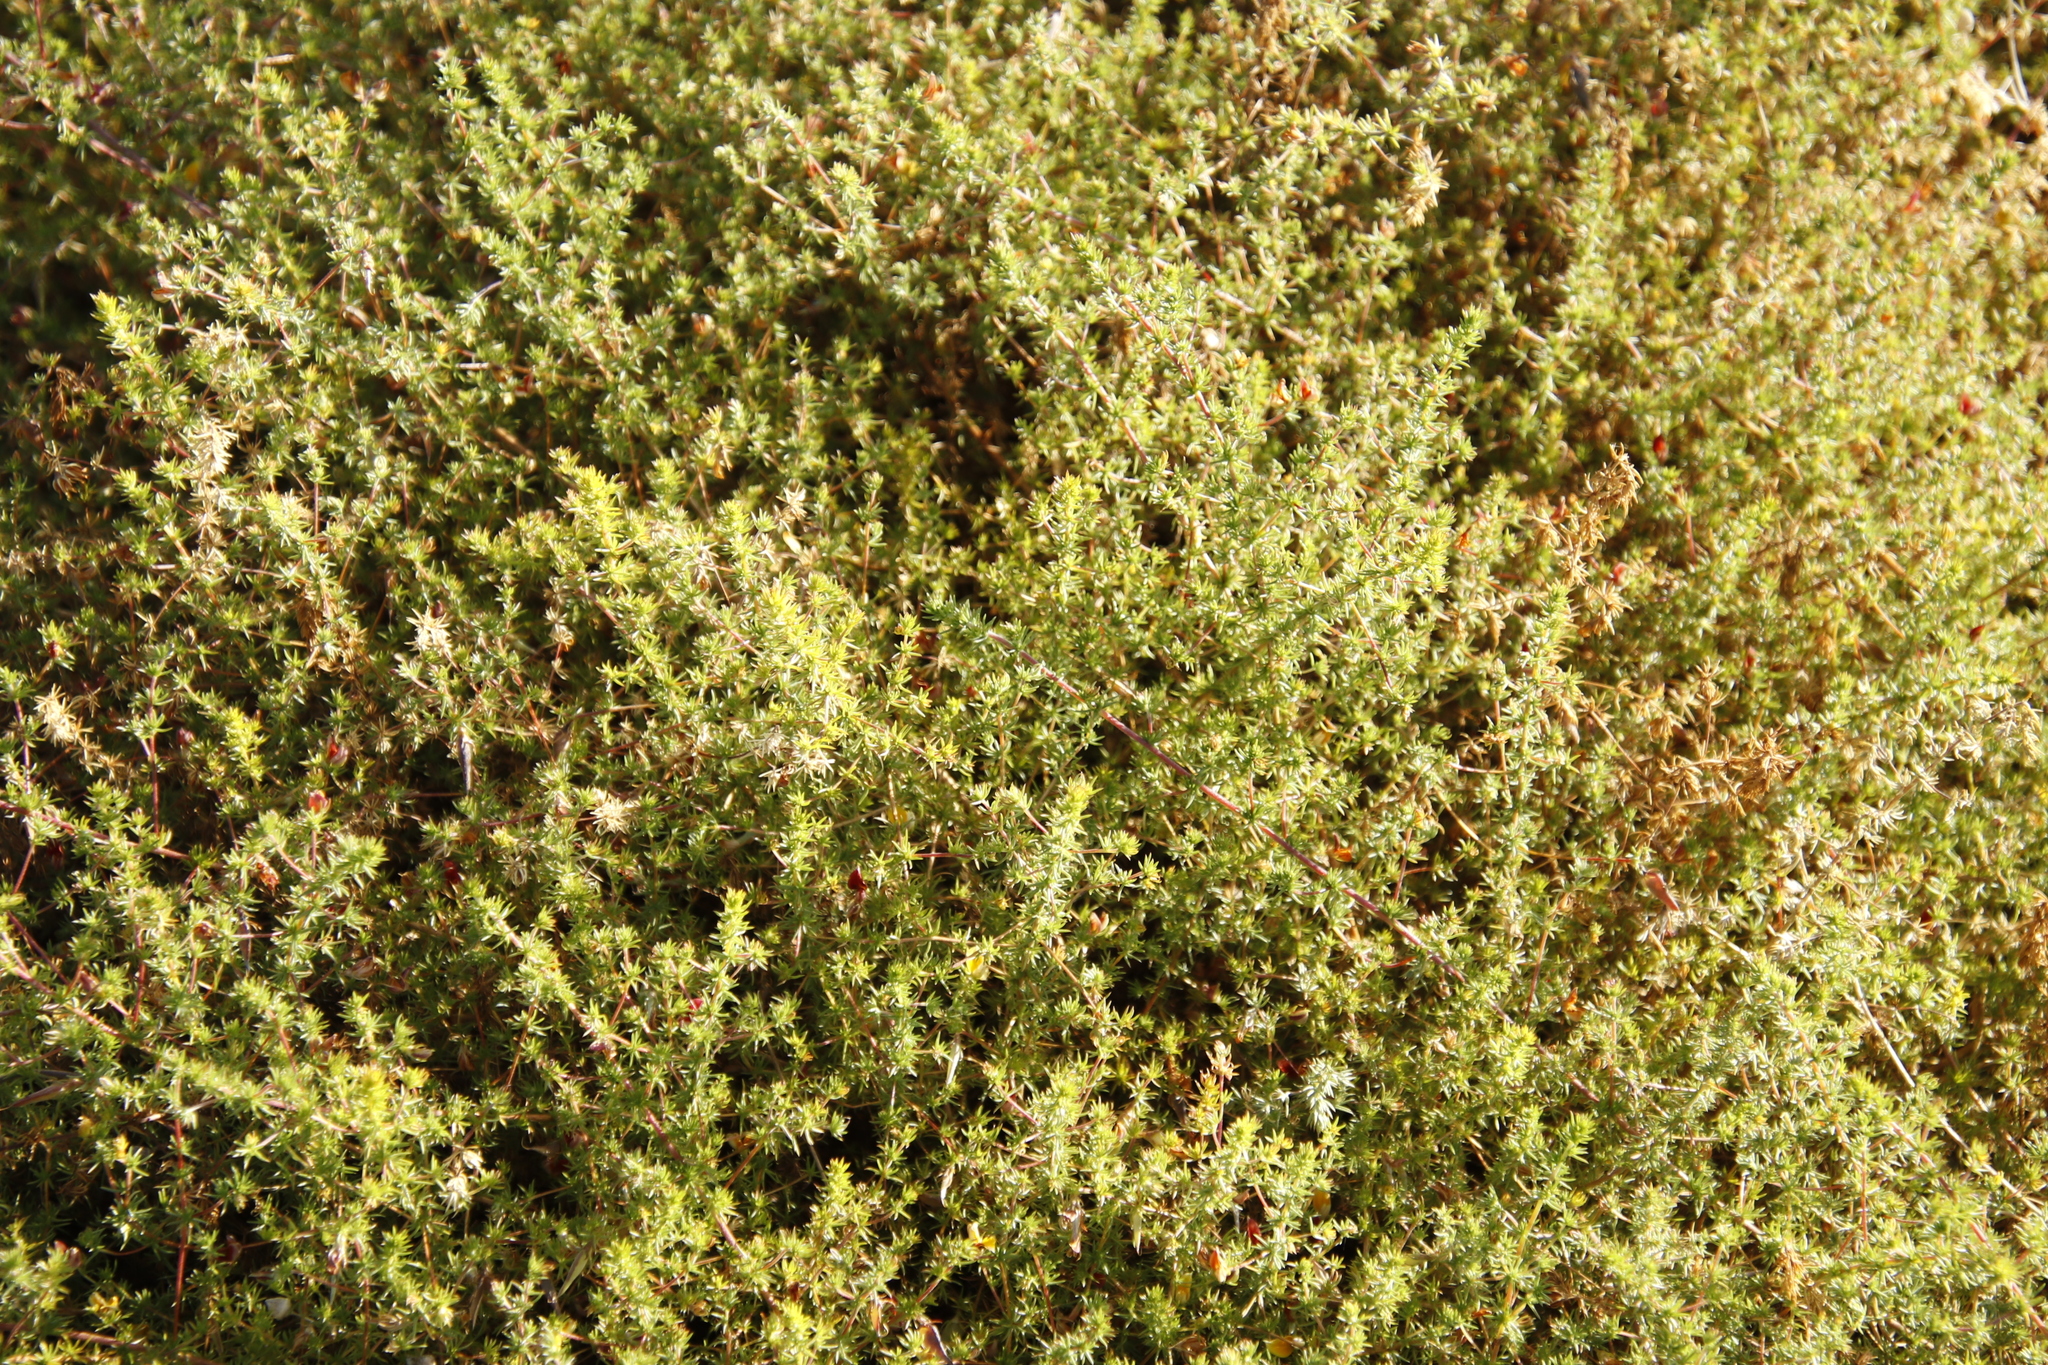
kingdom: Plantae
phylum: Tracheophyta
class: Magnoliopsida
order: Fabales
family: Fabaceae
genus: Aspalathus
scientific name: Aspalathus retroflexa
